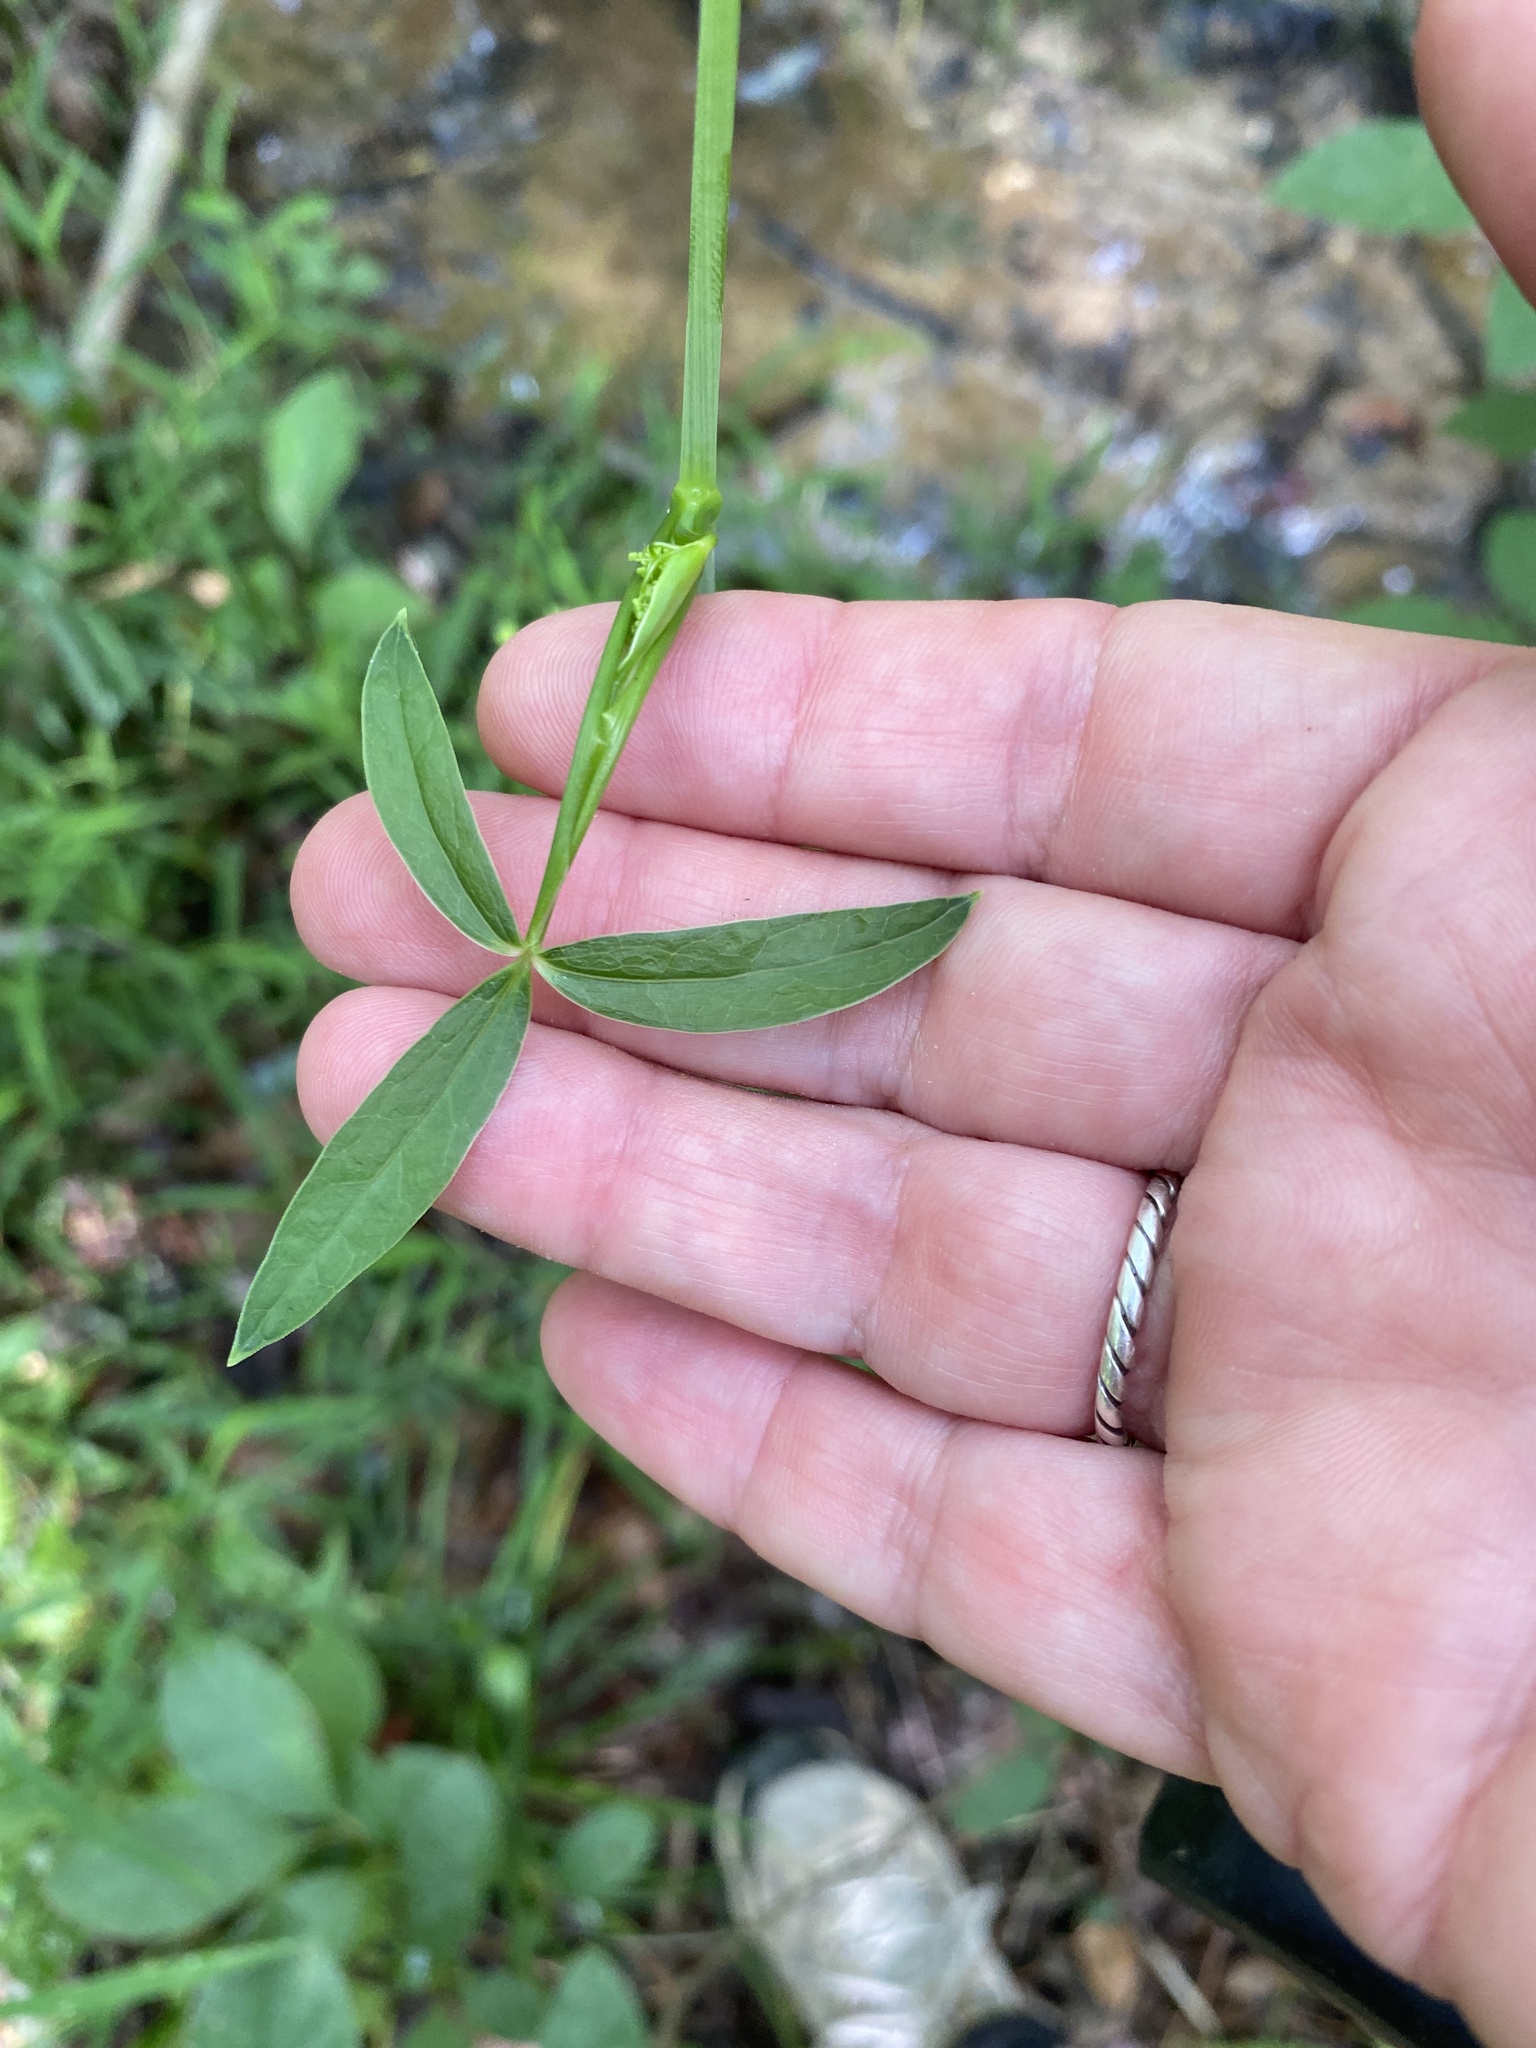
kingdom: Plantae
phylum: Tracheophyta
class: Magnoliopsida
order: Apiales
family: Apiaceae
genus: Oxypolis
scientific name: Oxypolis rigidior
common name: Cowbane
